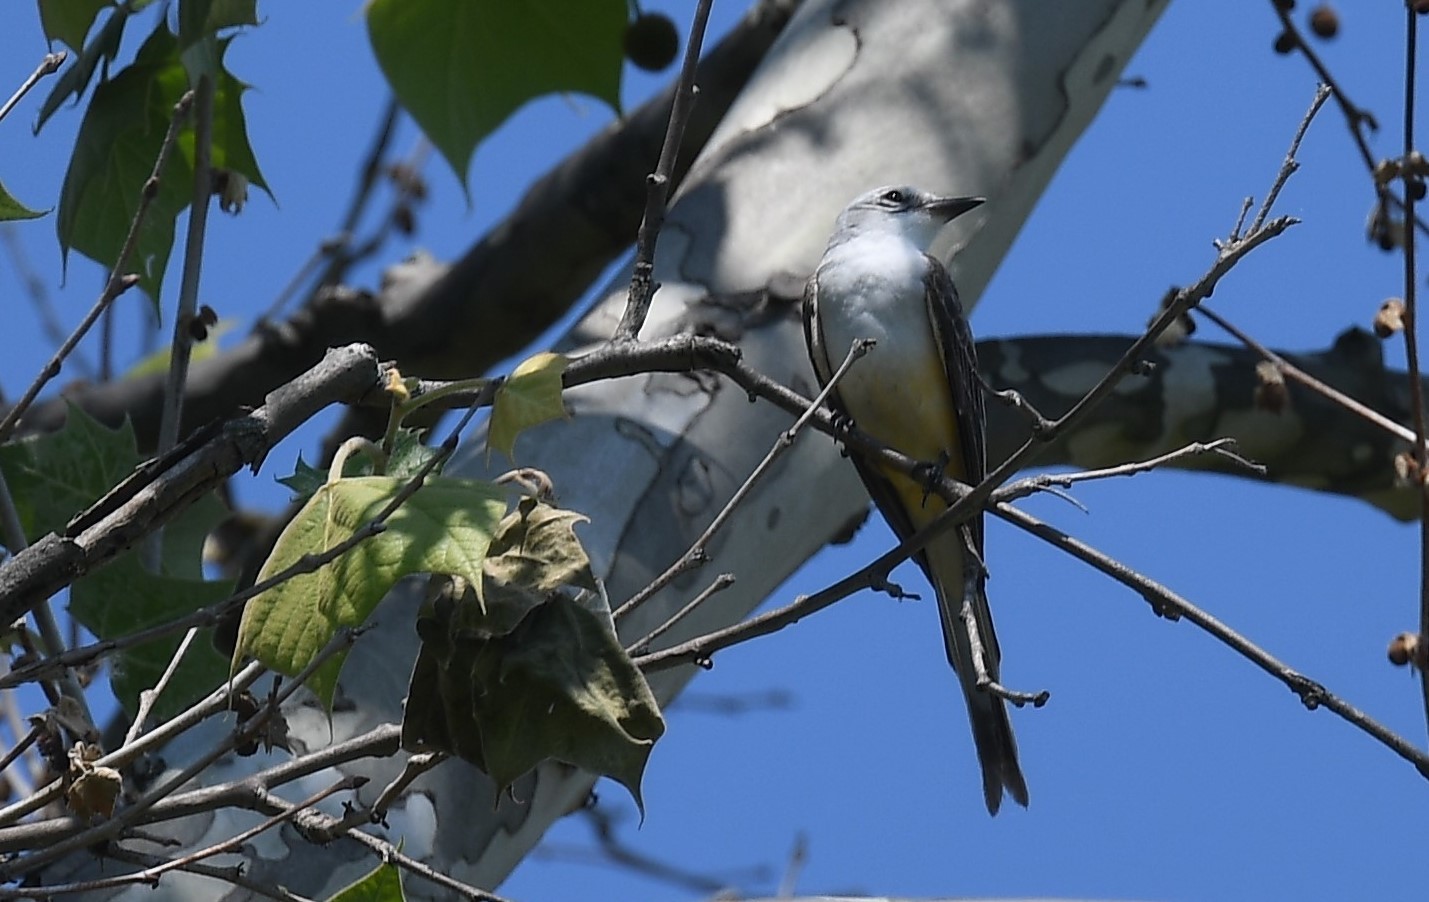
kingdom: Animalia
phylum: Chordata
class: Aves
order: Passeriformes
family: Tyrannidae
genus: Tyrannus
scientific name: Tyrannus forficatus
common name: Scissor-tailed flycatcher
